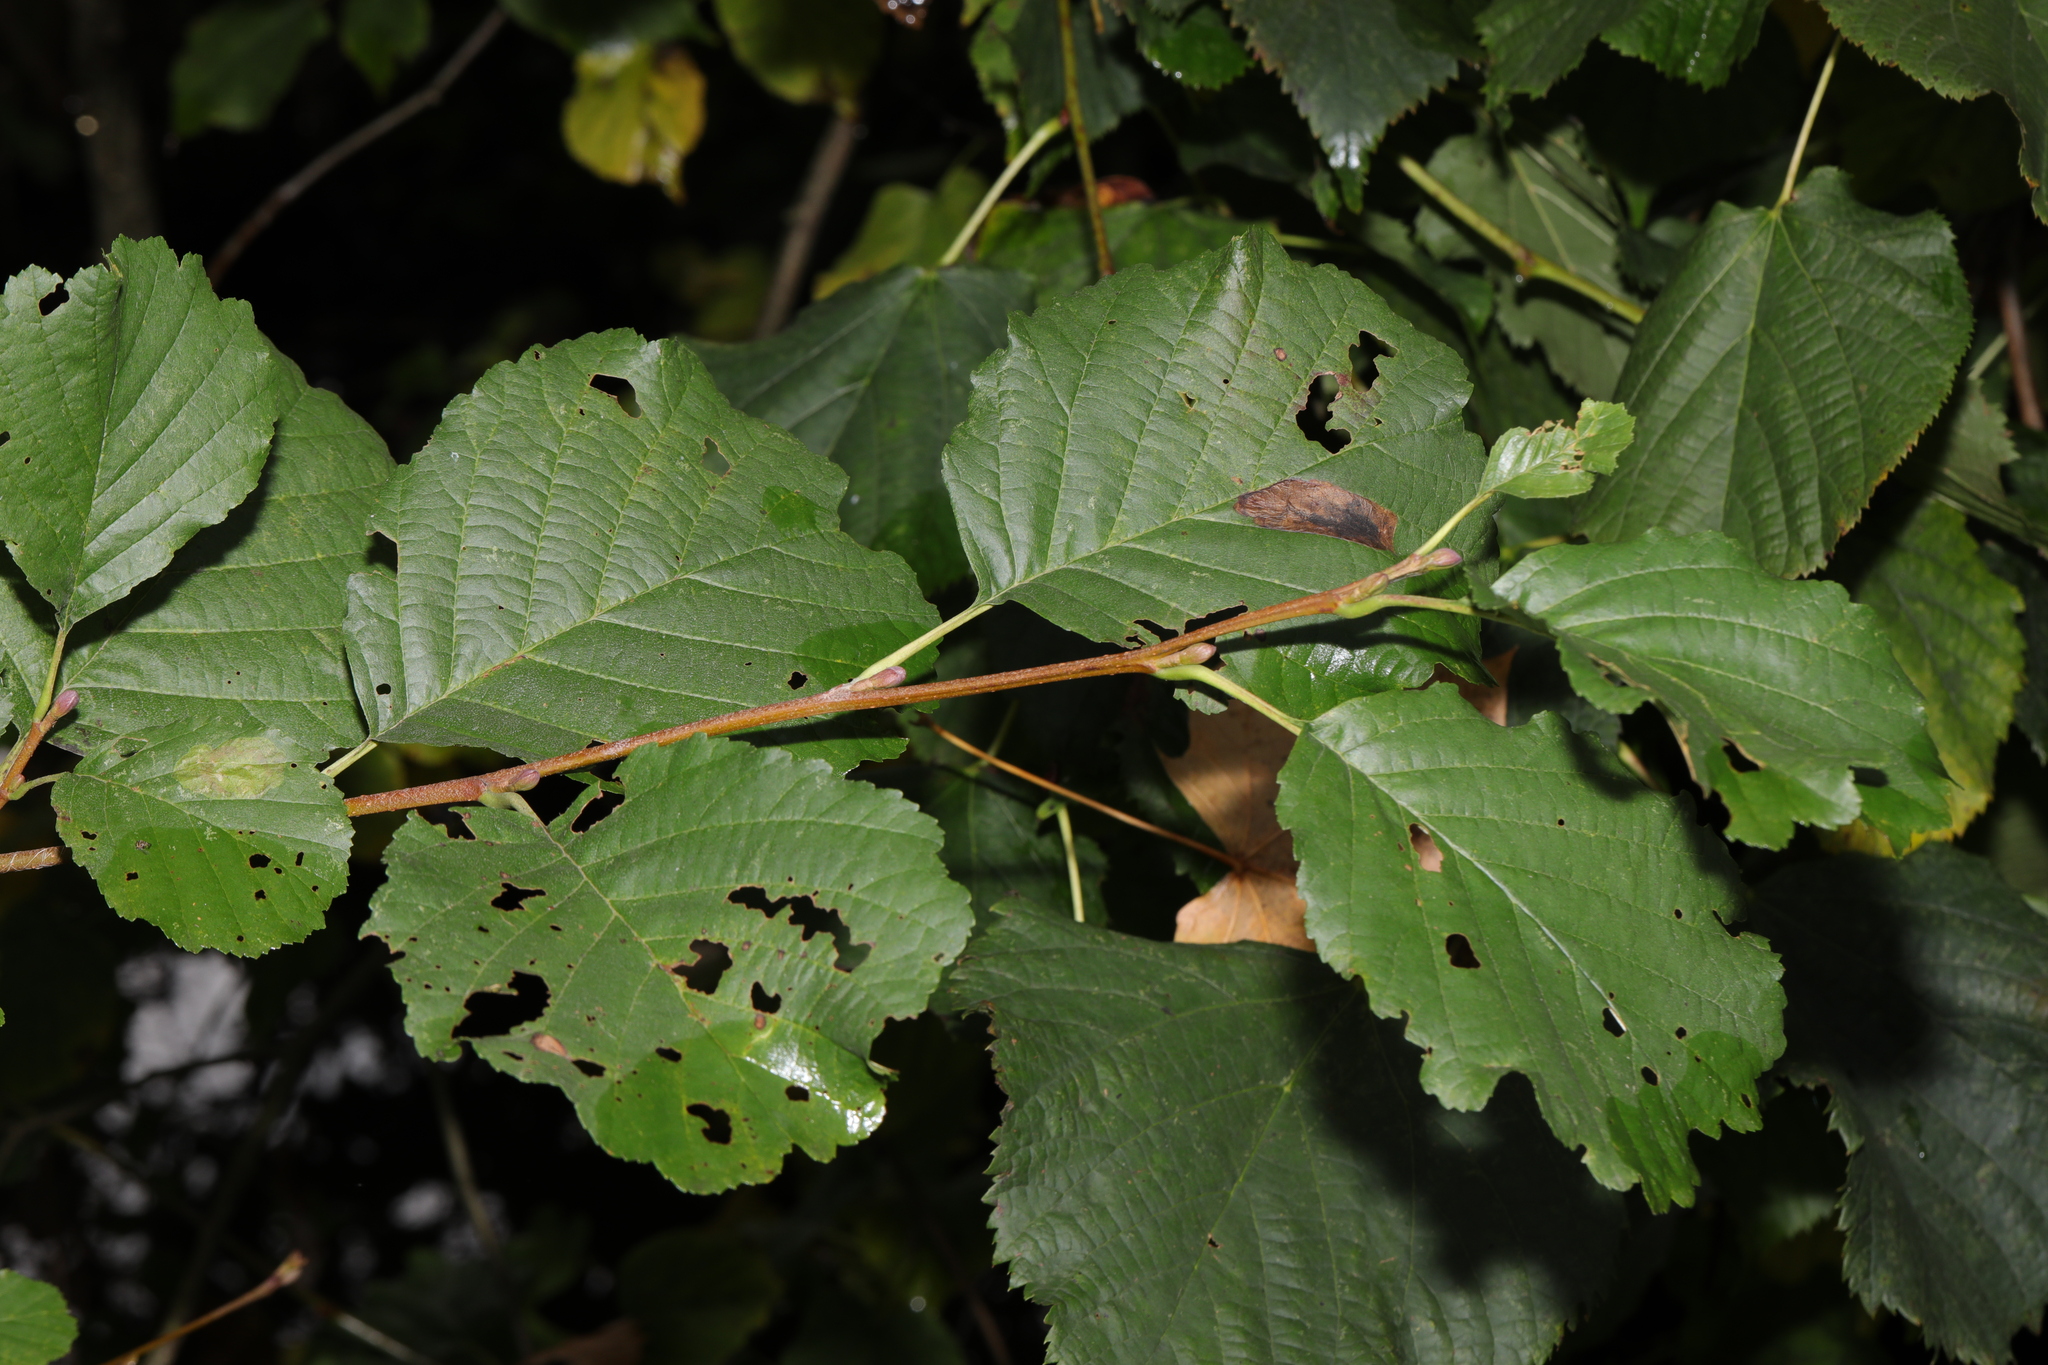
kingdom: Plantae
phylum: Tracheophyta
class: Magnoliopsida
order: Fagales
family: Betulaceae
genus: Alnus
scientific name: Alnus glutinosa
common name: Black alder
